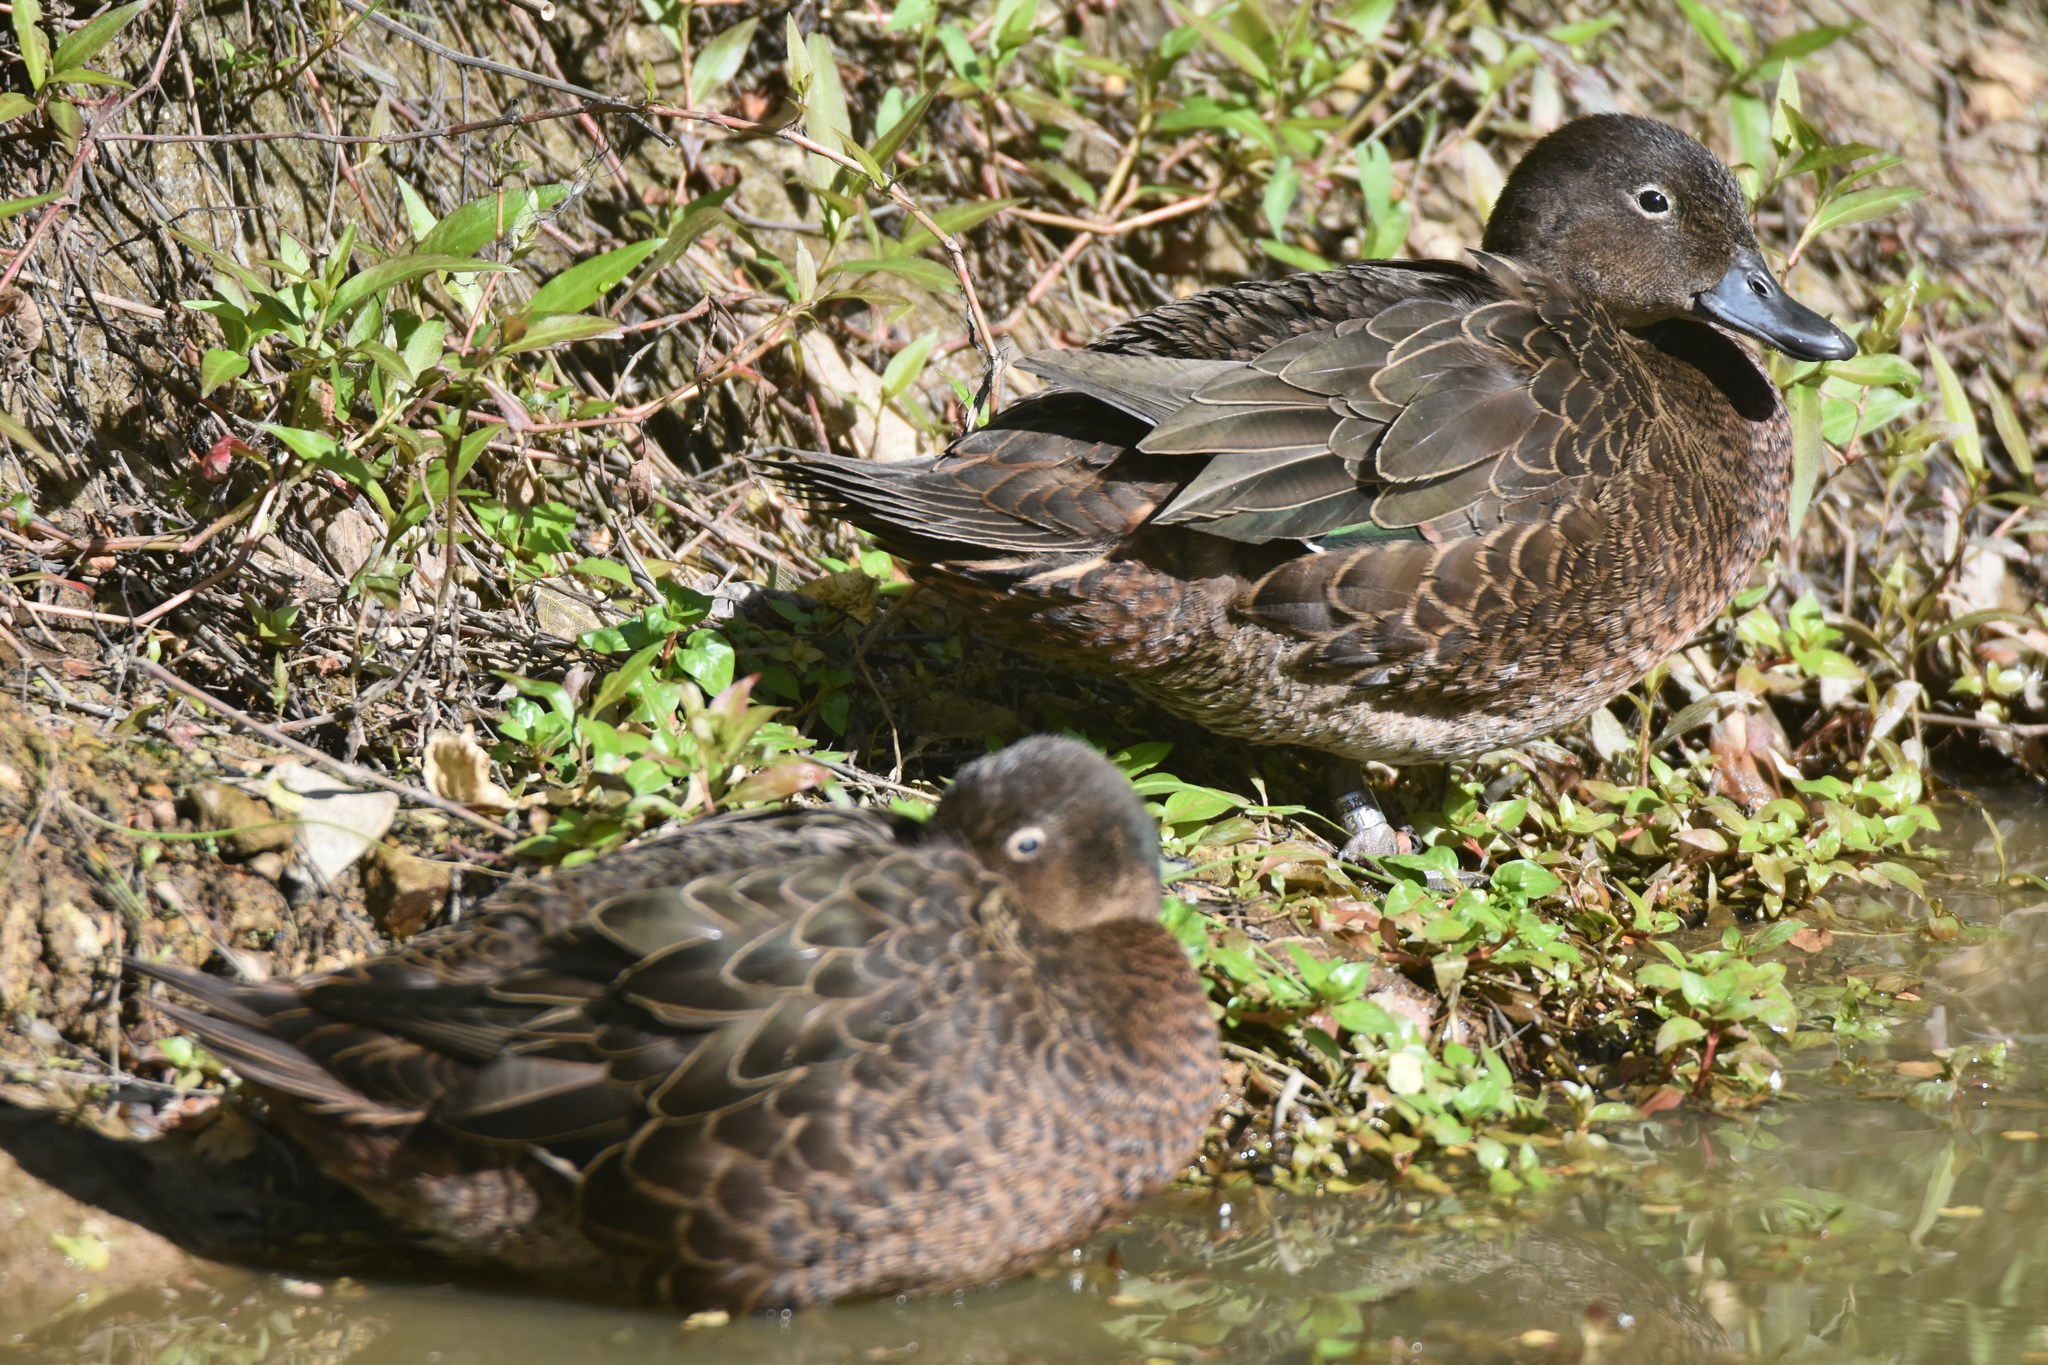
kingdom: Animalia
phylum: Chordata
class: Aves
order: Anseriformes
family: Anatidae
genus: Anas
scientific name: Anas chlorotis
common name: Brown teal
